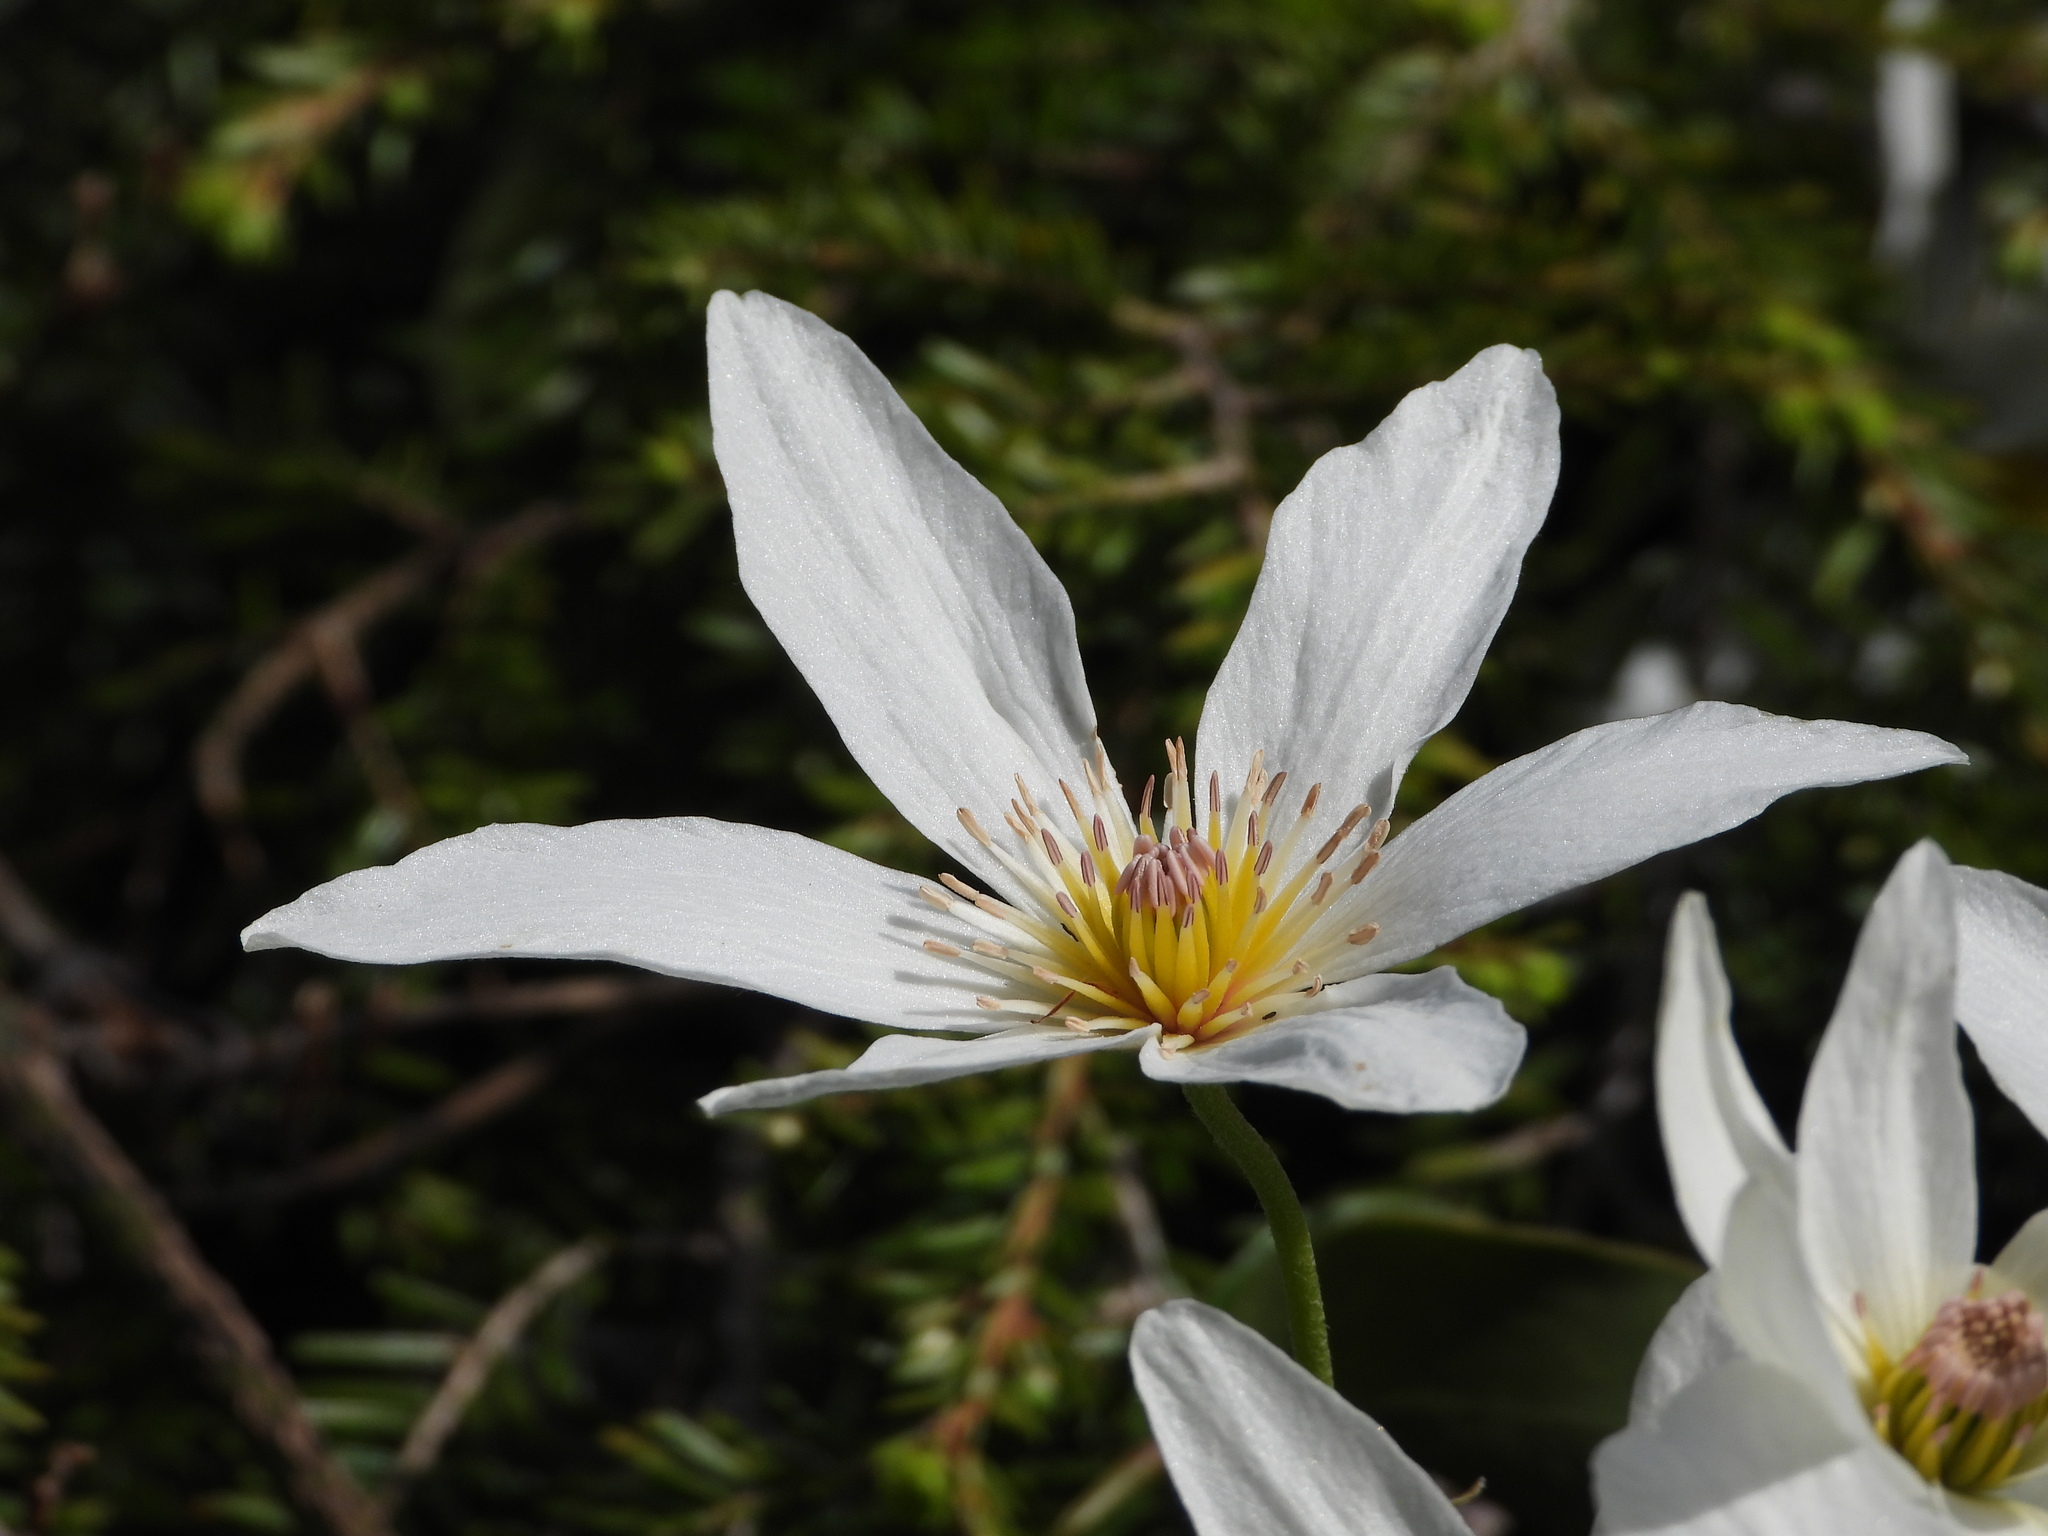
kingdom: Plantae
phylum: Tracheophyta
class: Magnoliopsida
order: Ranunculales
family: Ranunculaceae
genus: Clematis
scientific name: Clematis paniculata
